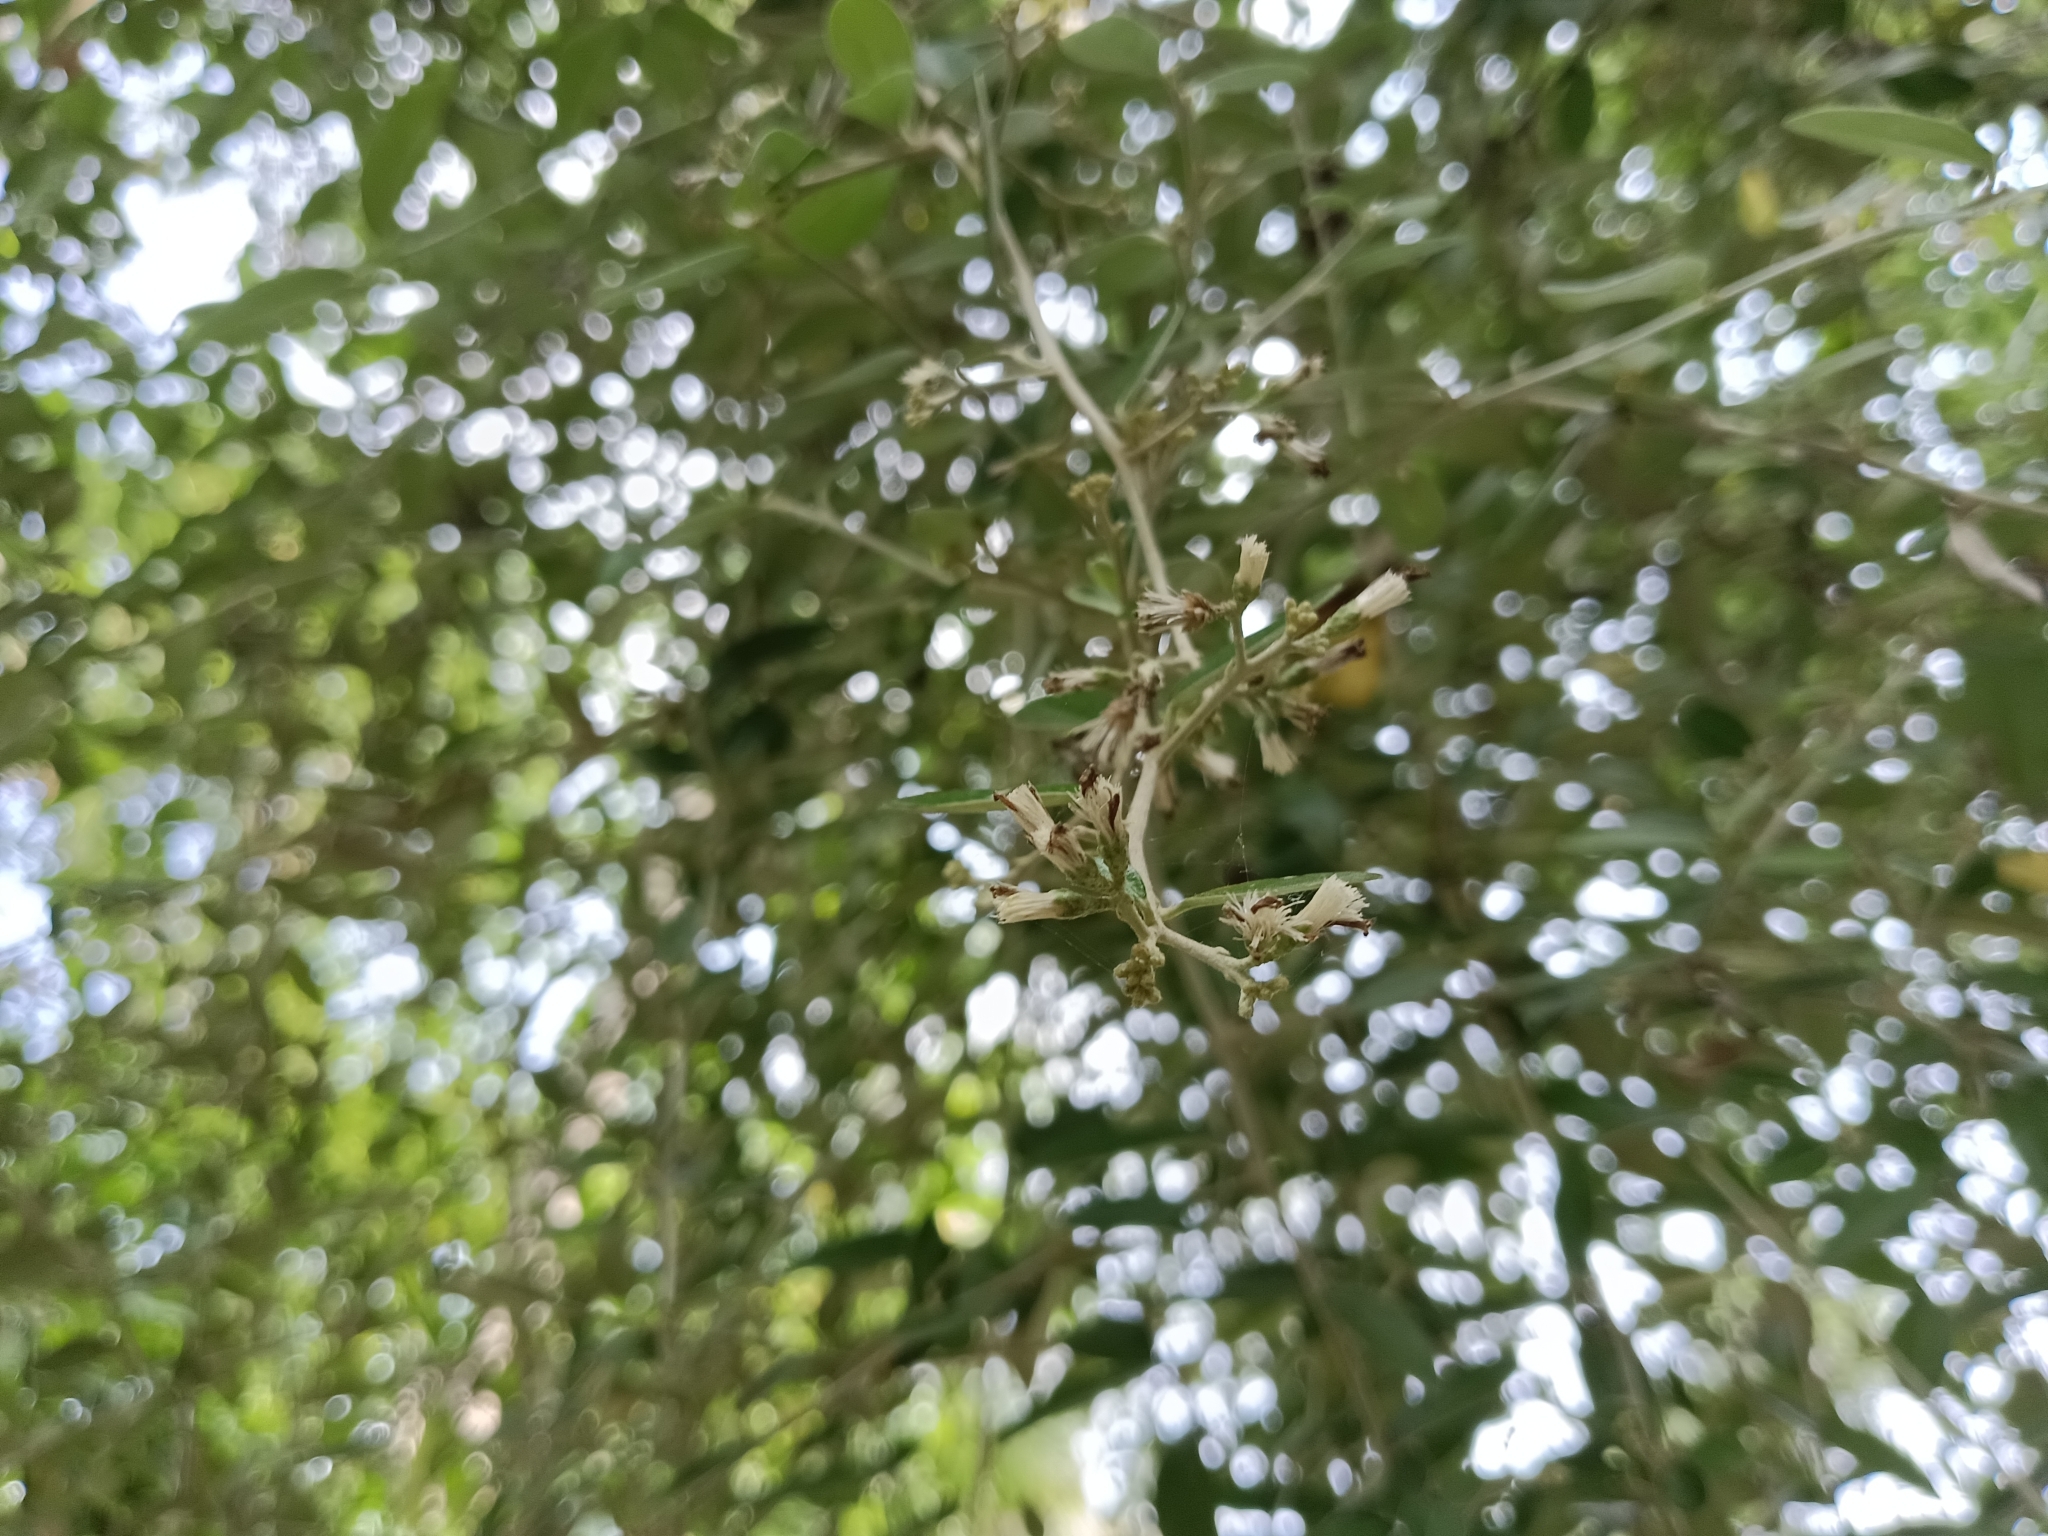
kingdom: Plantae
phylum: Tracheophyta
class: Magnoliopsida
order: Asterales
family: Asteraceae
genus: Tarlmounia
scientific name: Tarlmounia elliptica
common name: Kheua sa lot
